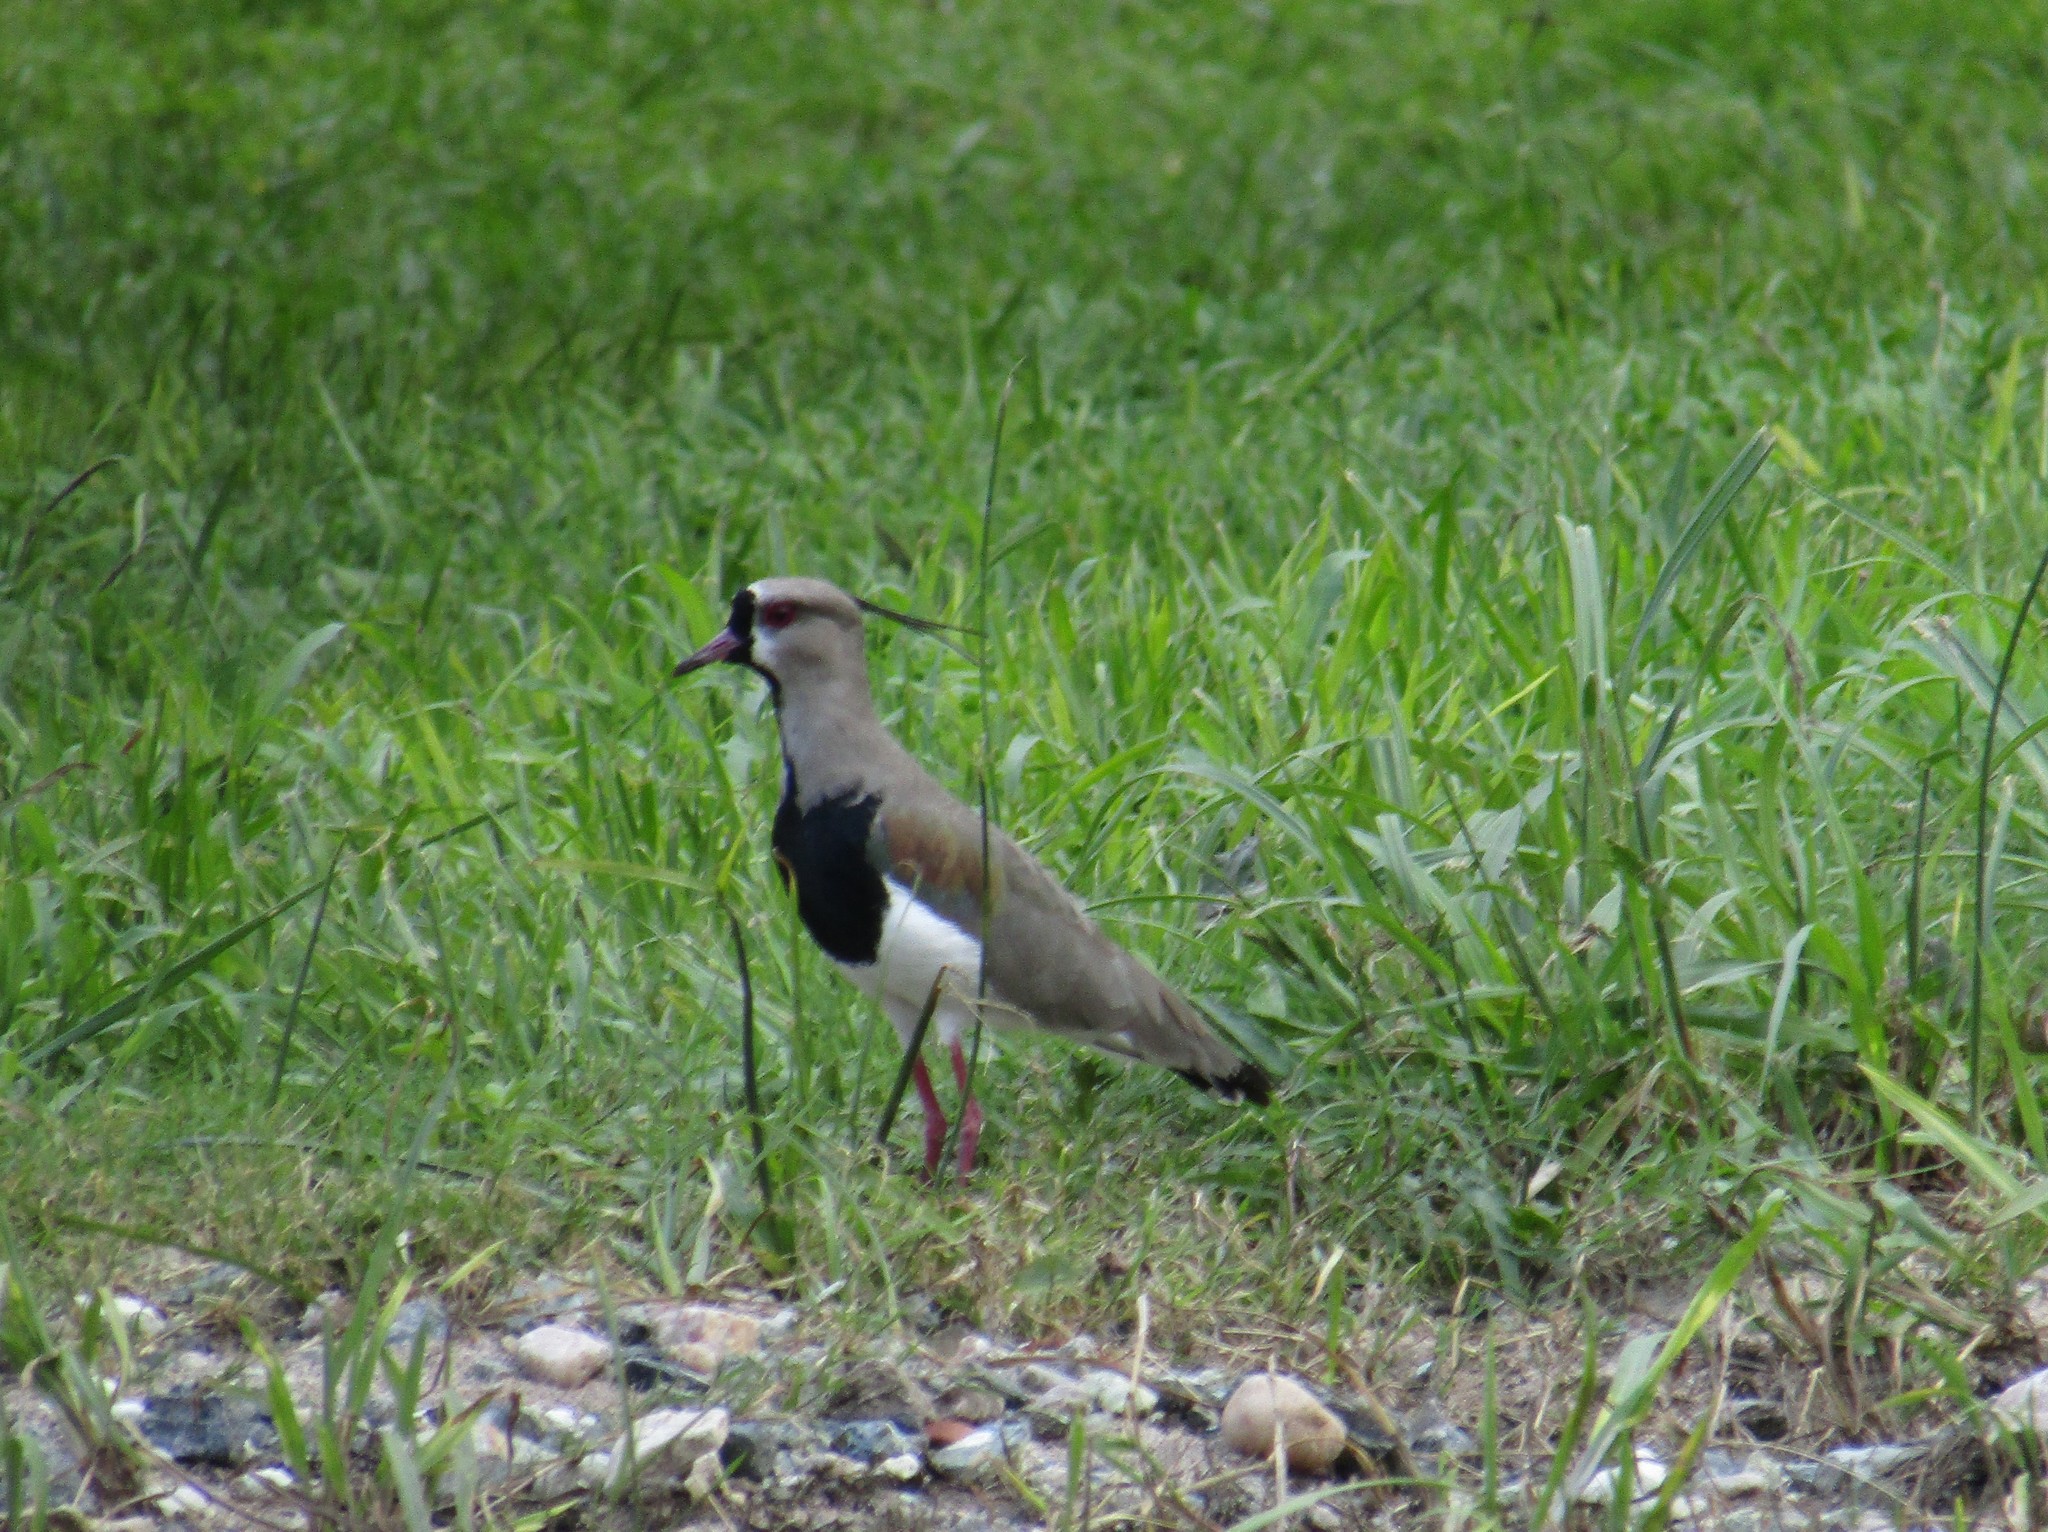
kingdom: Animalia
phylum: Chordata
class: Aves
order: Charadriiformes
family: Charadriidae
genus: Vanellus
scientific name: Vanellus chilensis
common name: Southern lapwing
